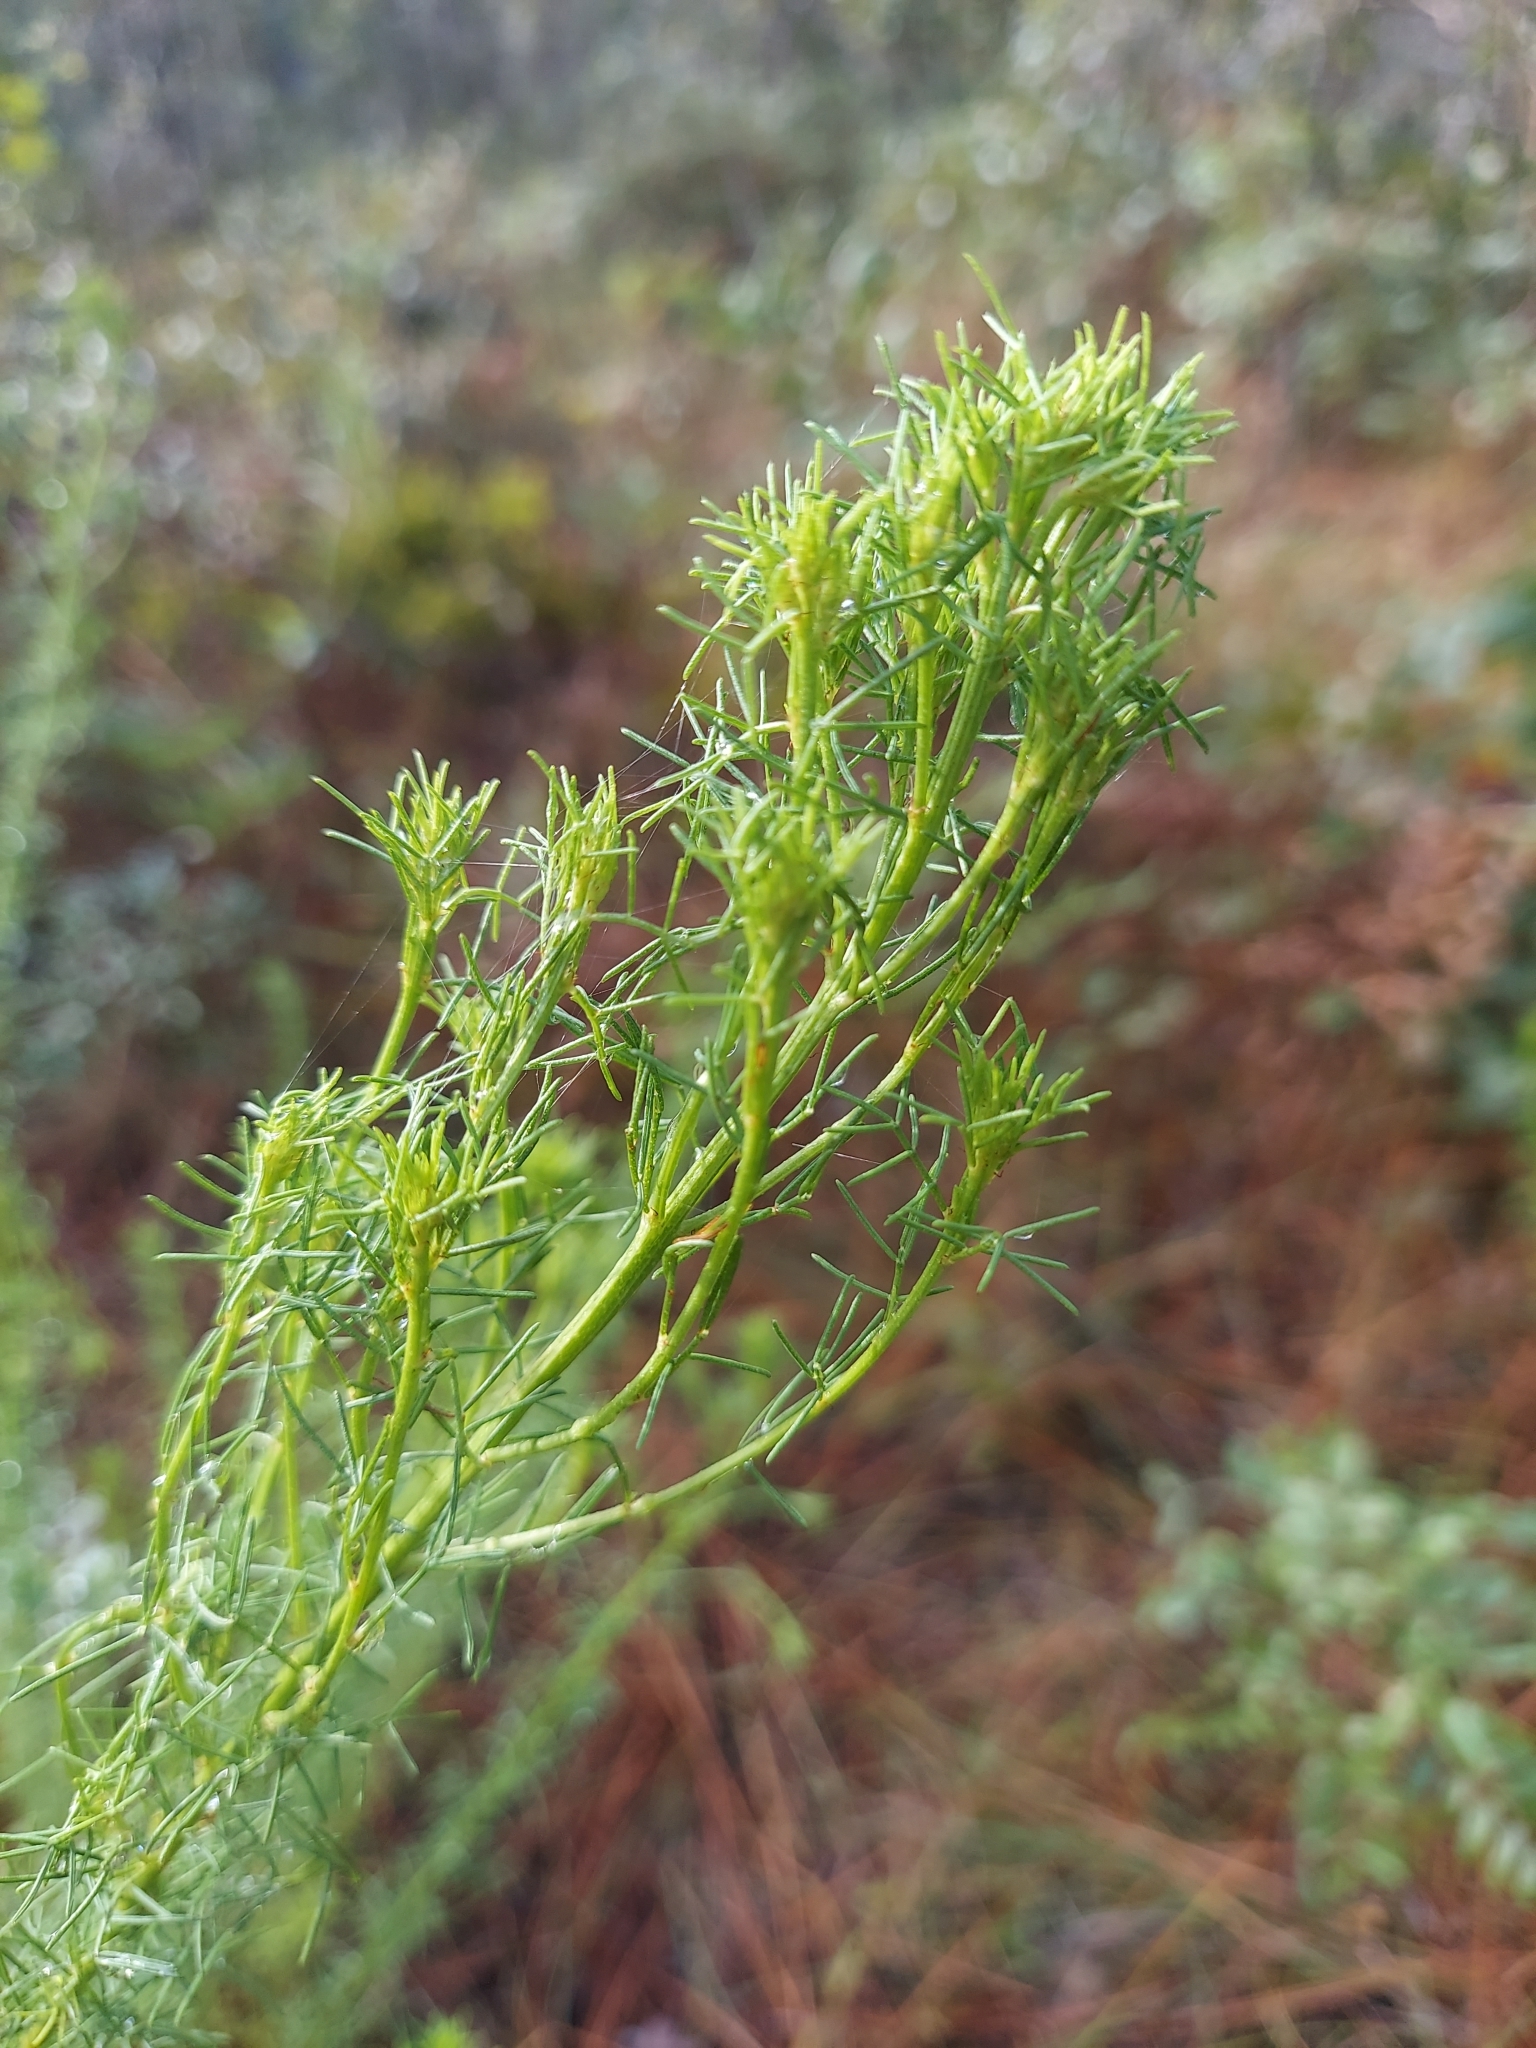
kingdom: Plantae
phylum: Tracheophyta
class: Magnoliopsida
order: Fabales
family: Fabaceae
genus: Dalea
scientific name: Dalea pinnata
